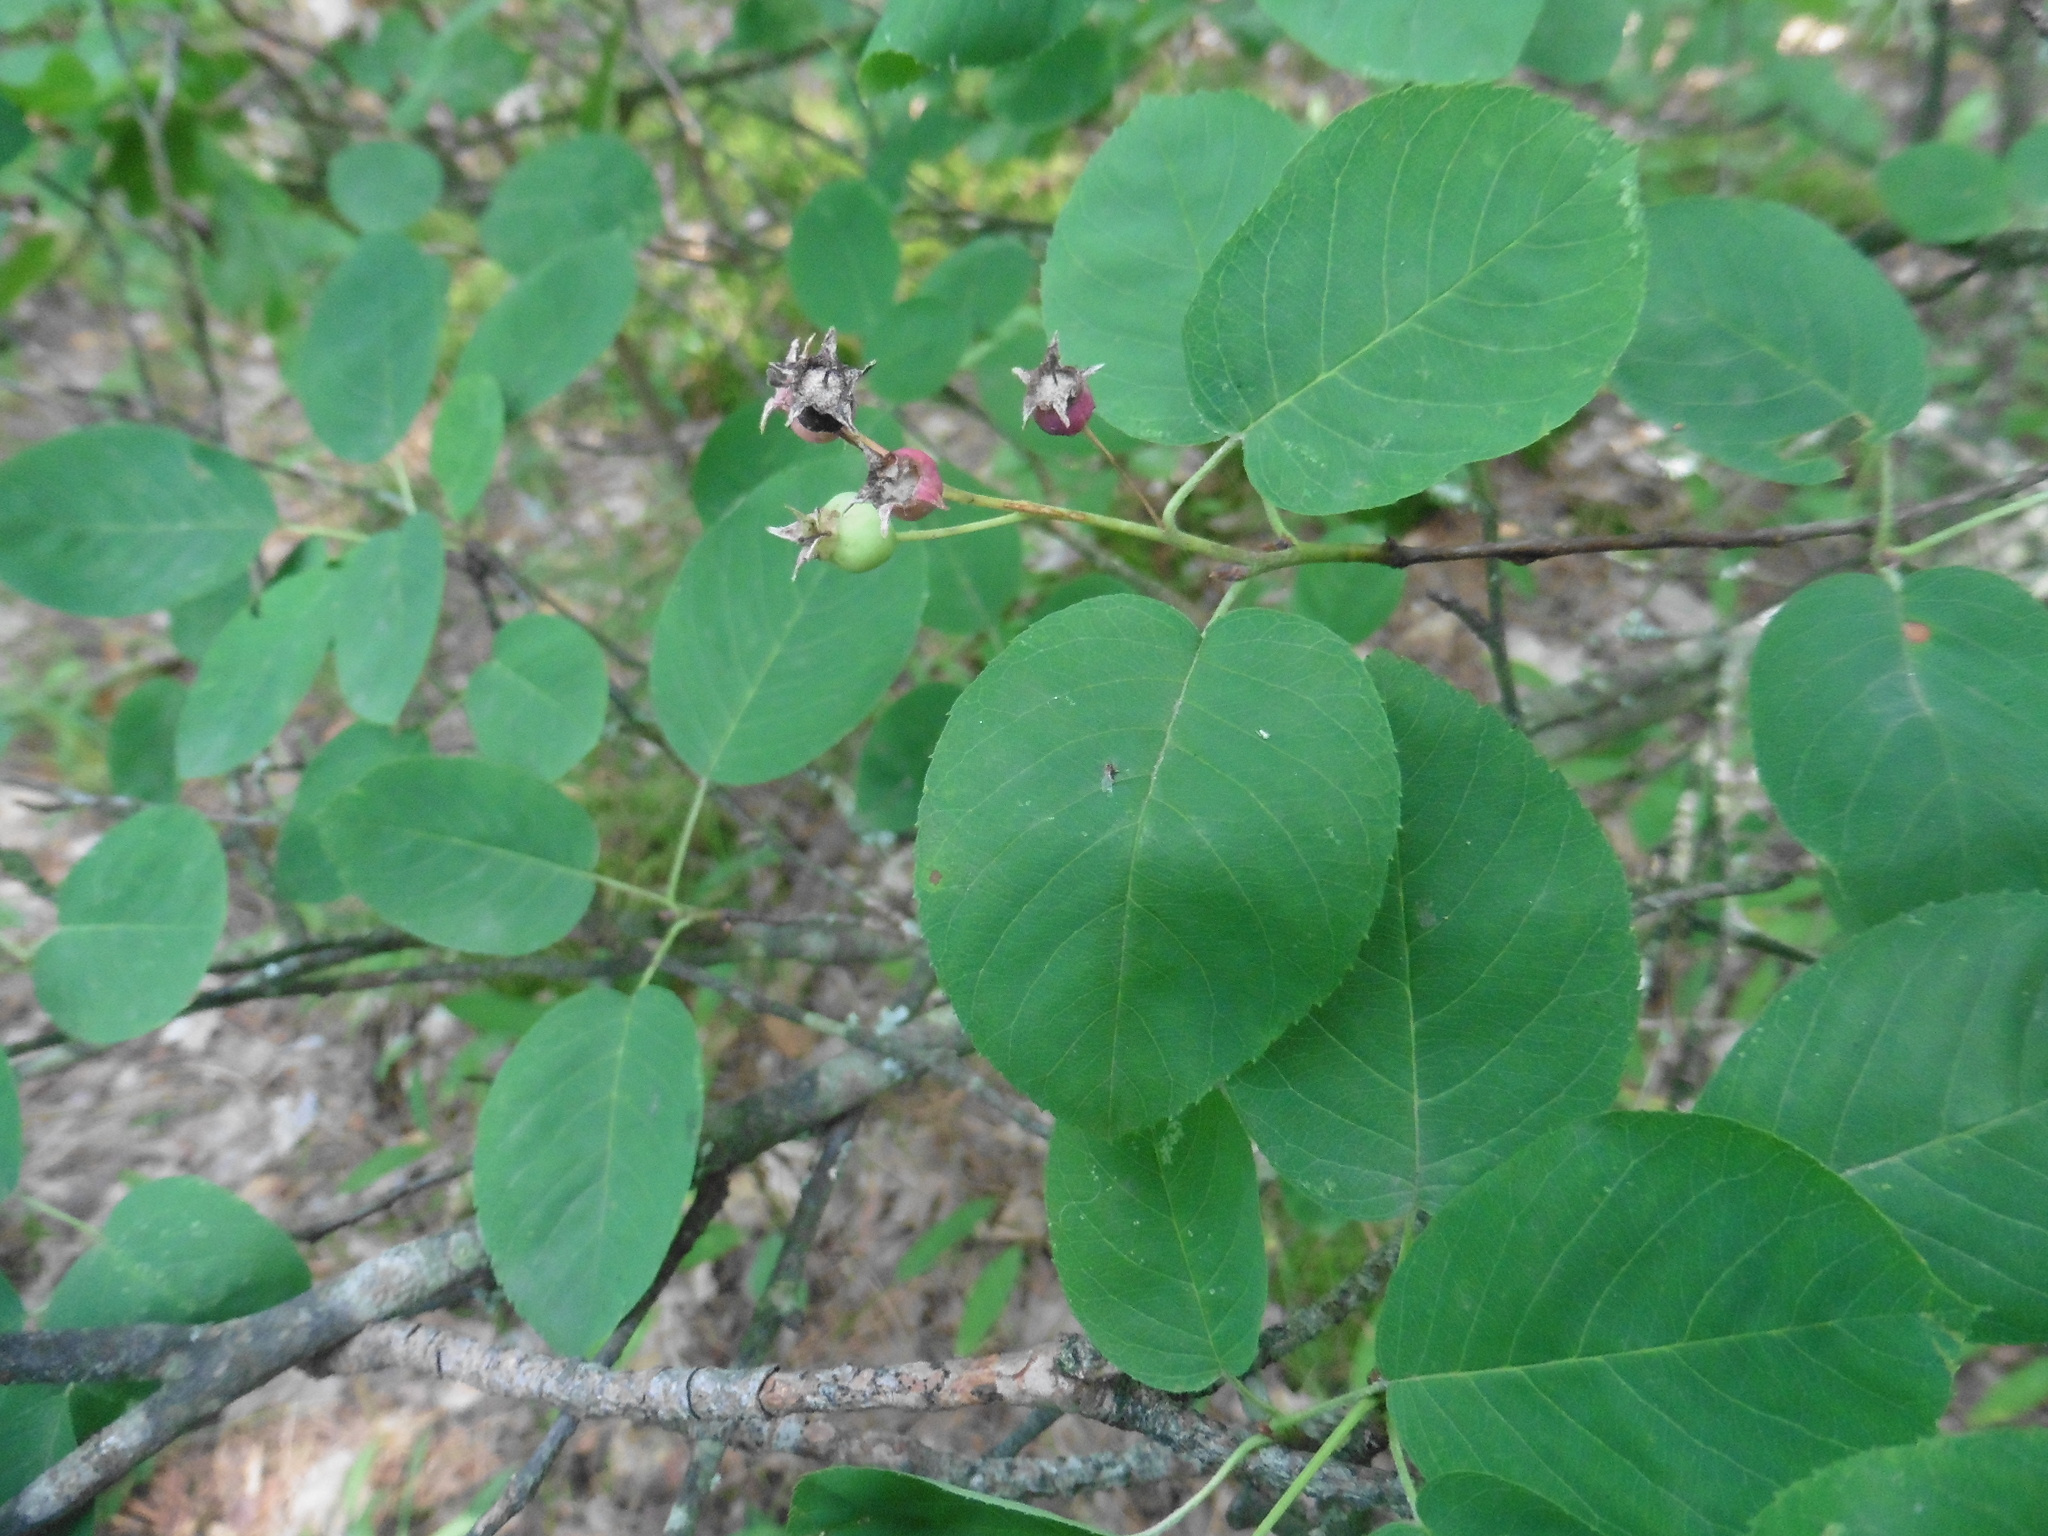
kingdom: Plantae
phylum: Tracheophyta
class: Magnoliopsida
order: Rosales
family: Rosaceae
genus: Amelanchier
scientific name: Amelanchier
